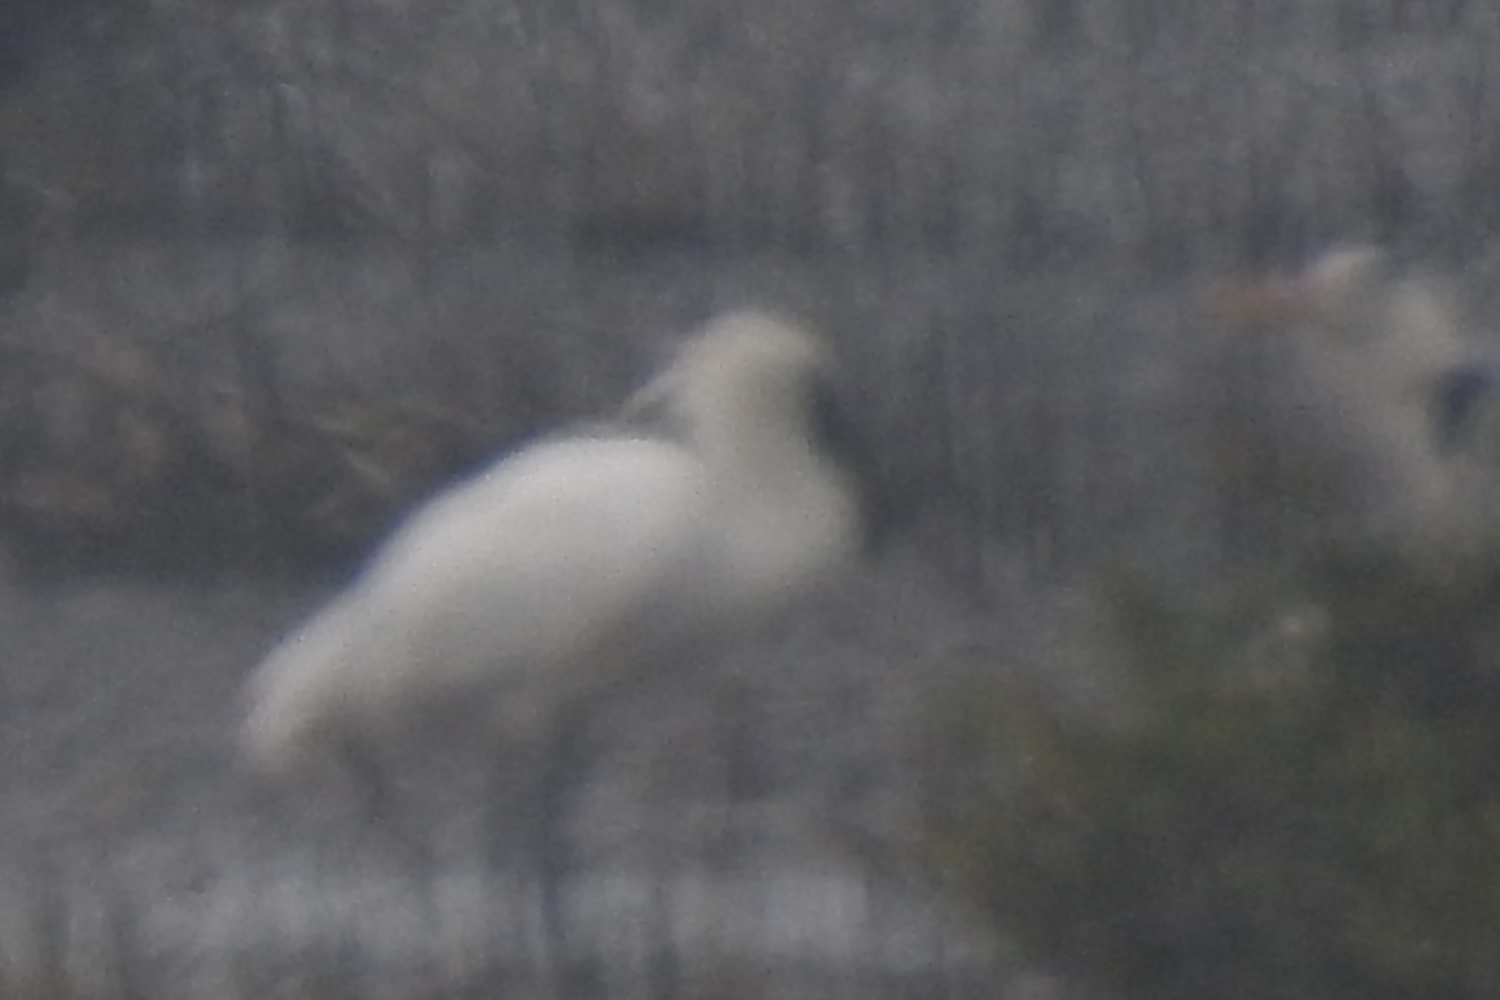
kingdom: Animalia
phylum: Chordata
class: Aves
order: Pelecaniformes
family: Threskiornithidae
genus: Platalea
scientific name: Platalea minor
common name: Black-faced spoonbill
